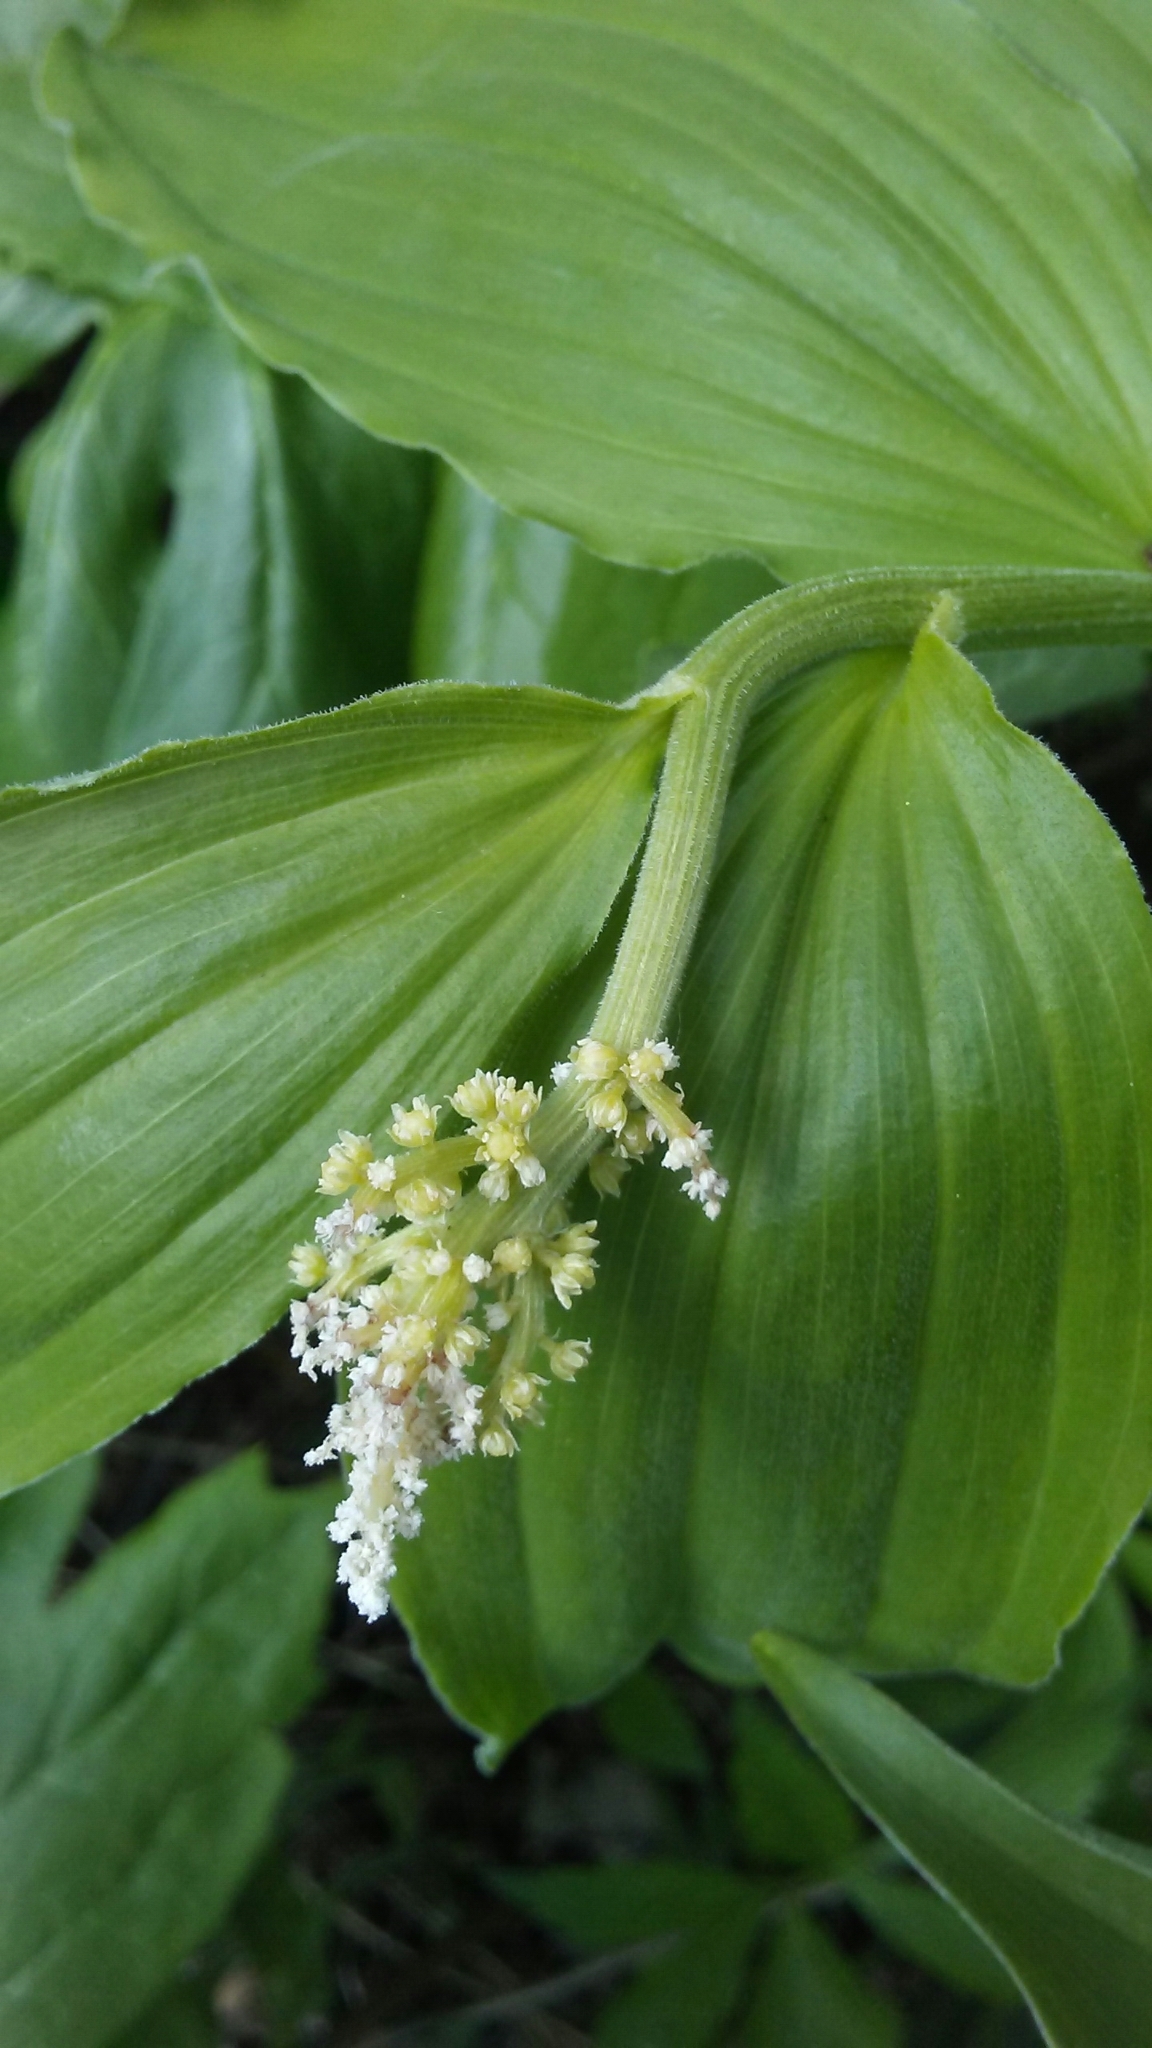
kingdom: Plantae
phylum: Tracheophyta
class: Liliopsida
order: Asparagales
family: Asparagaceae
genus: Maianthemum
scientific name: Maianthemum racemosum
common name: False spikenard
